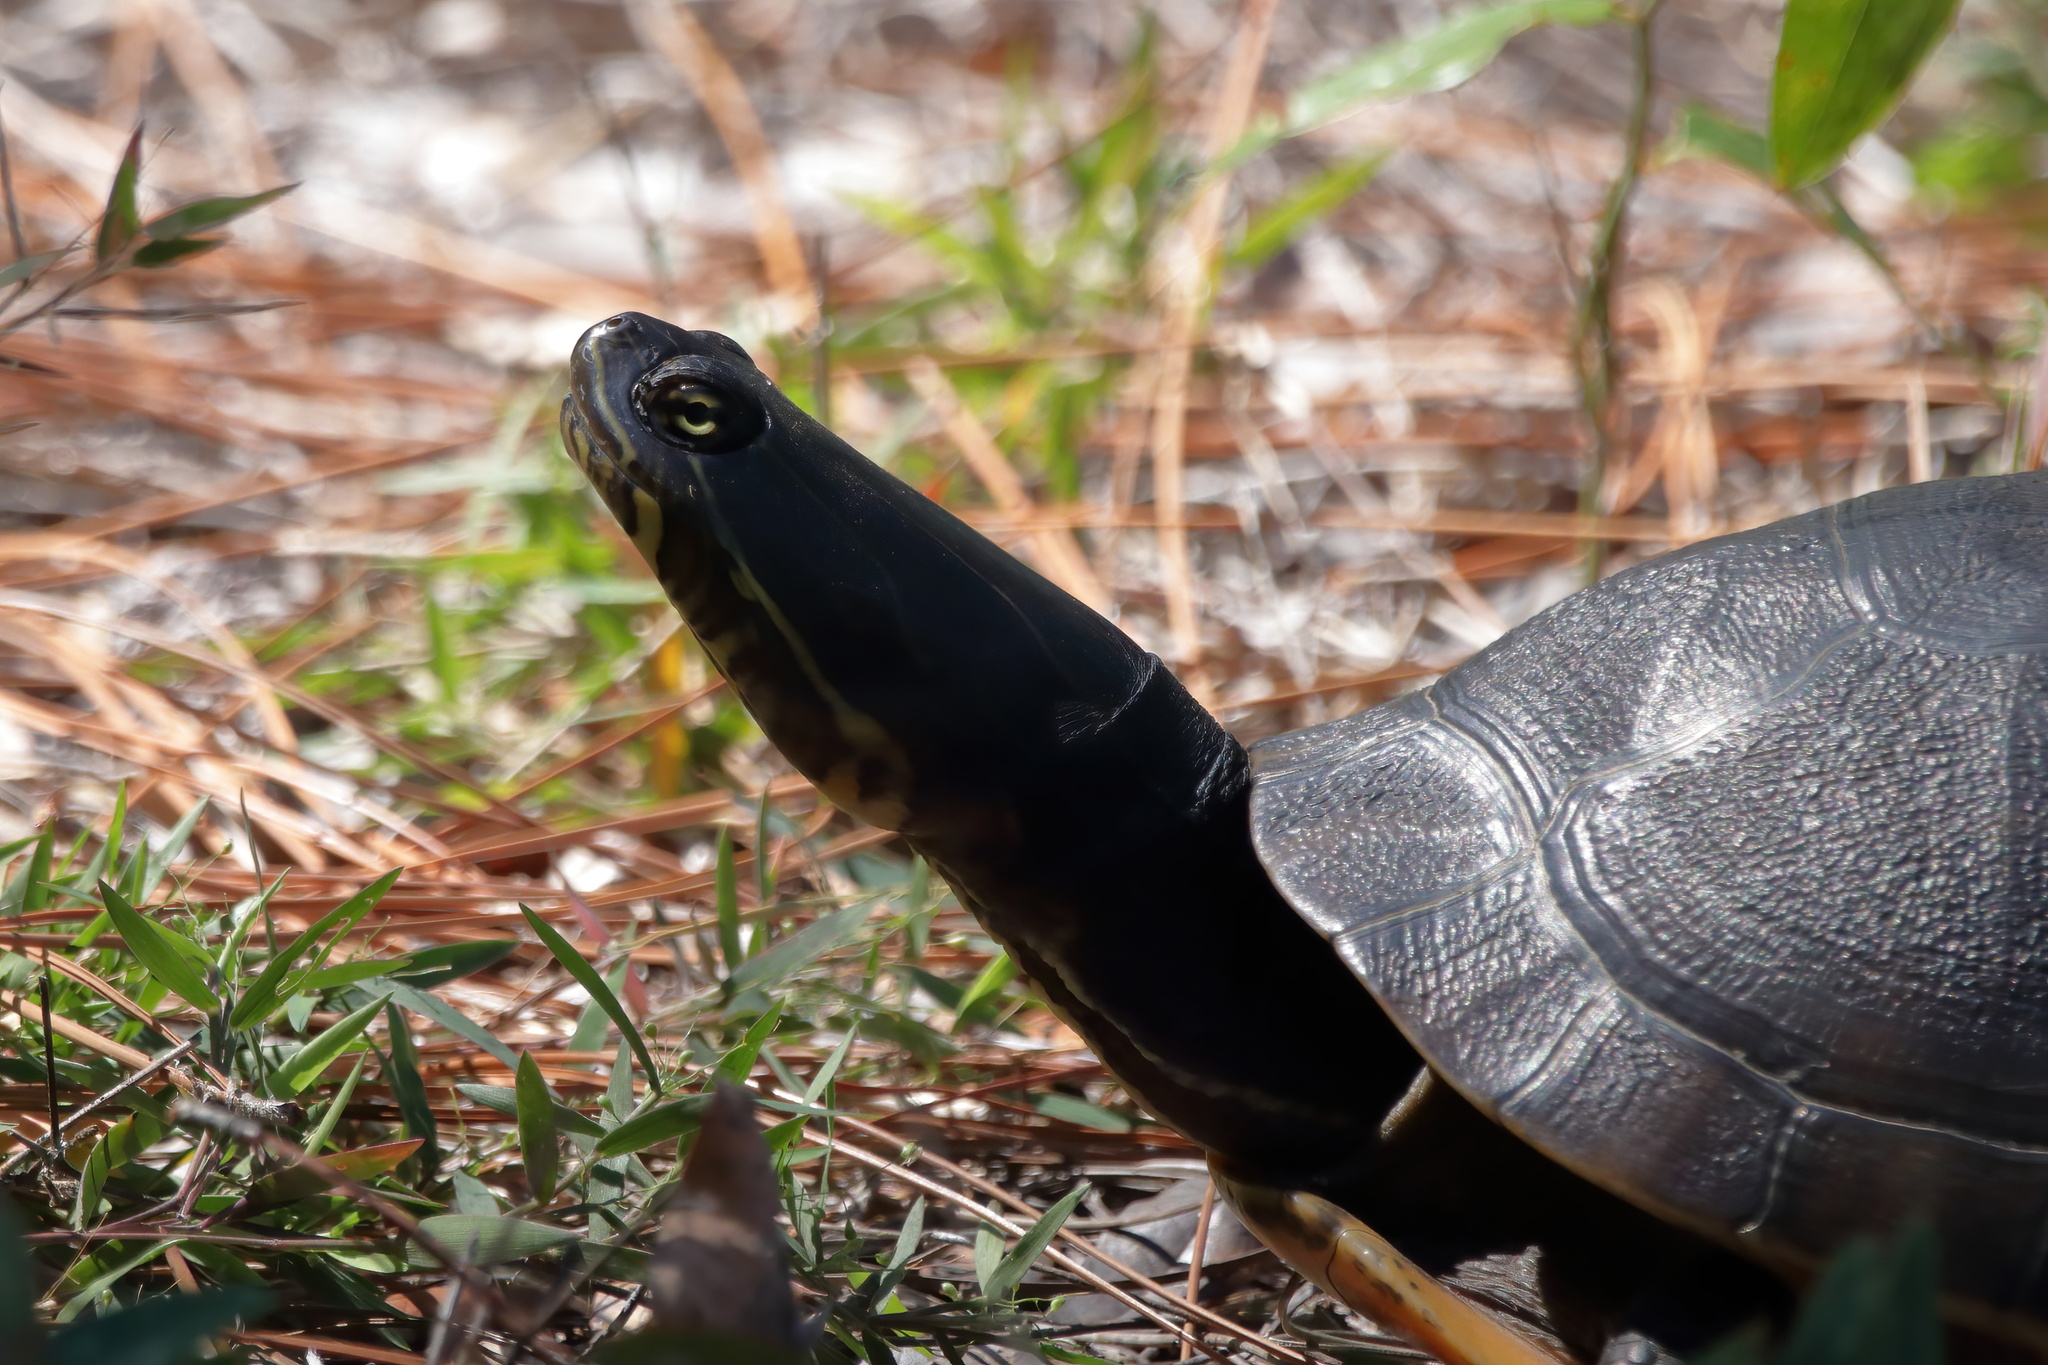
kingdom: Animalia
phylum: Chordata
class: Testudines
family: Emydidae
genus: Deirochelys
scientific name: Deirochelys reticularia
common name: Chicken turtle
